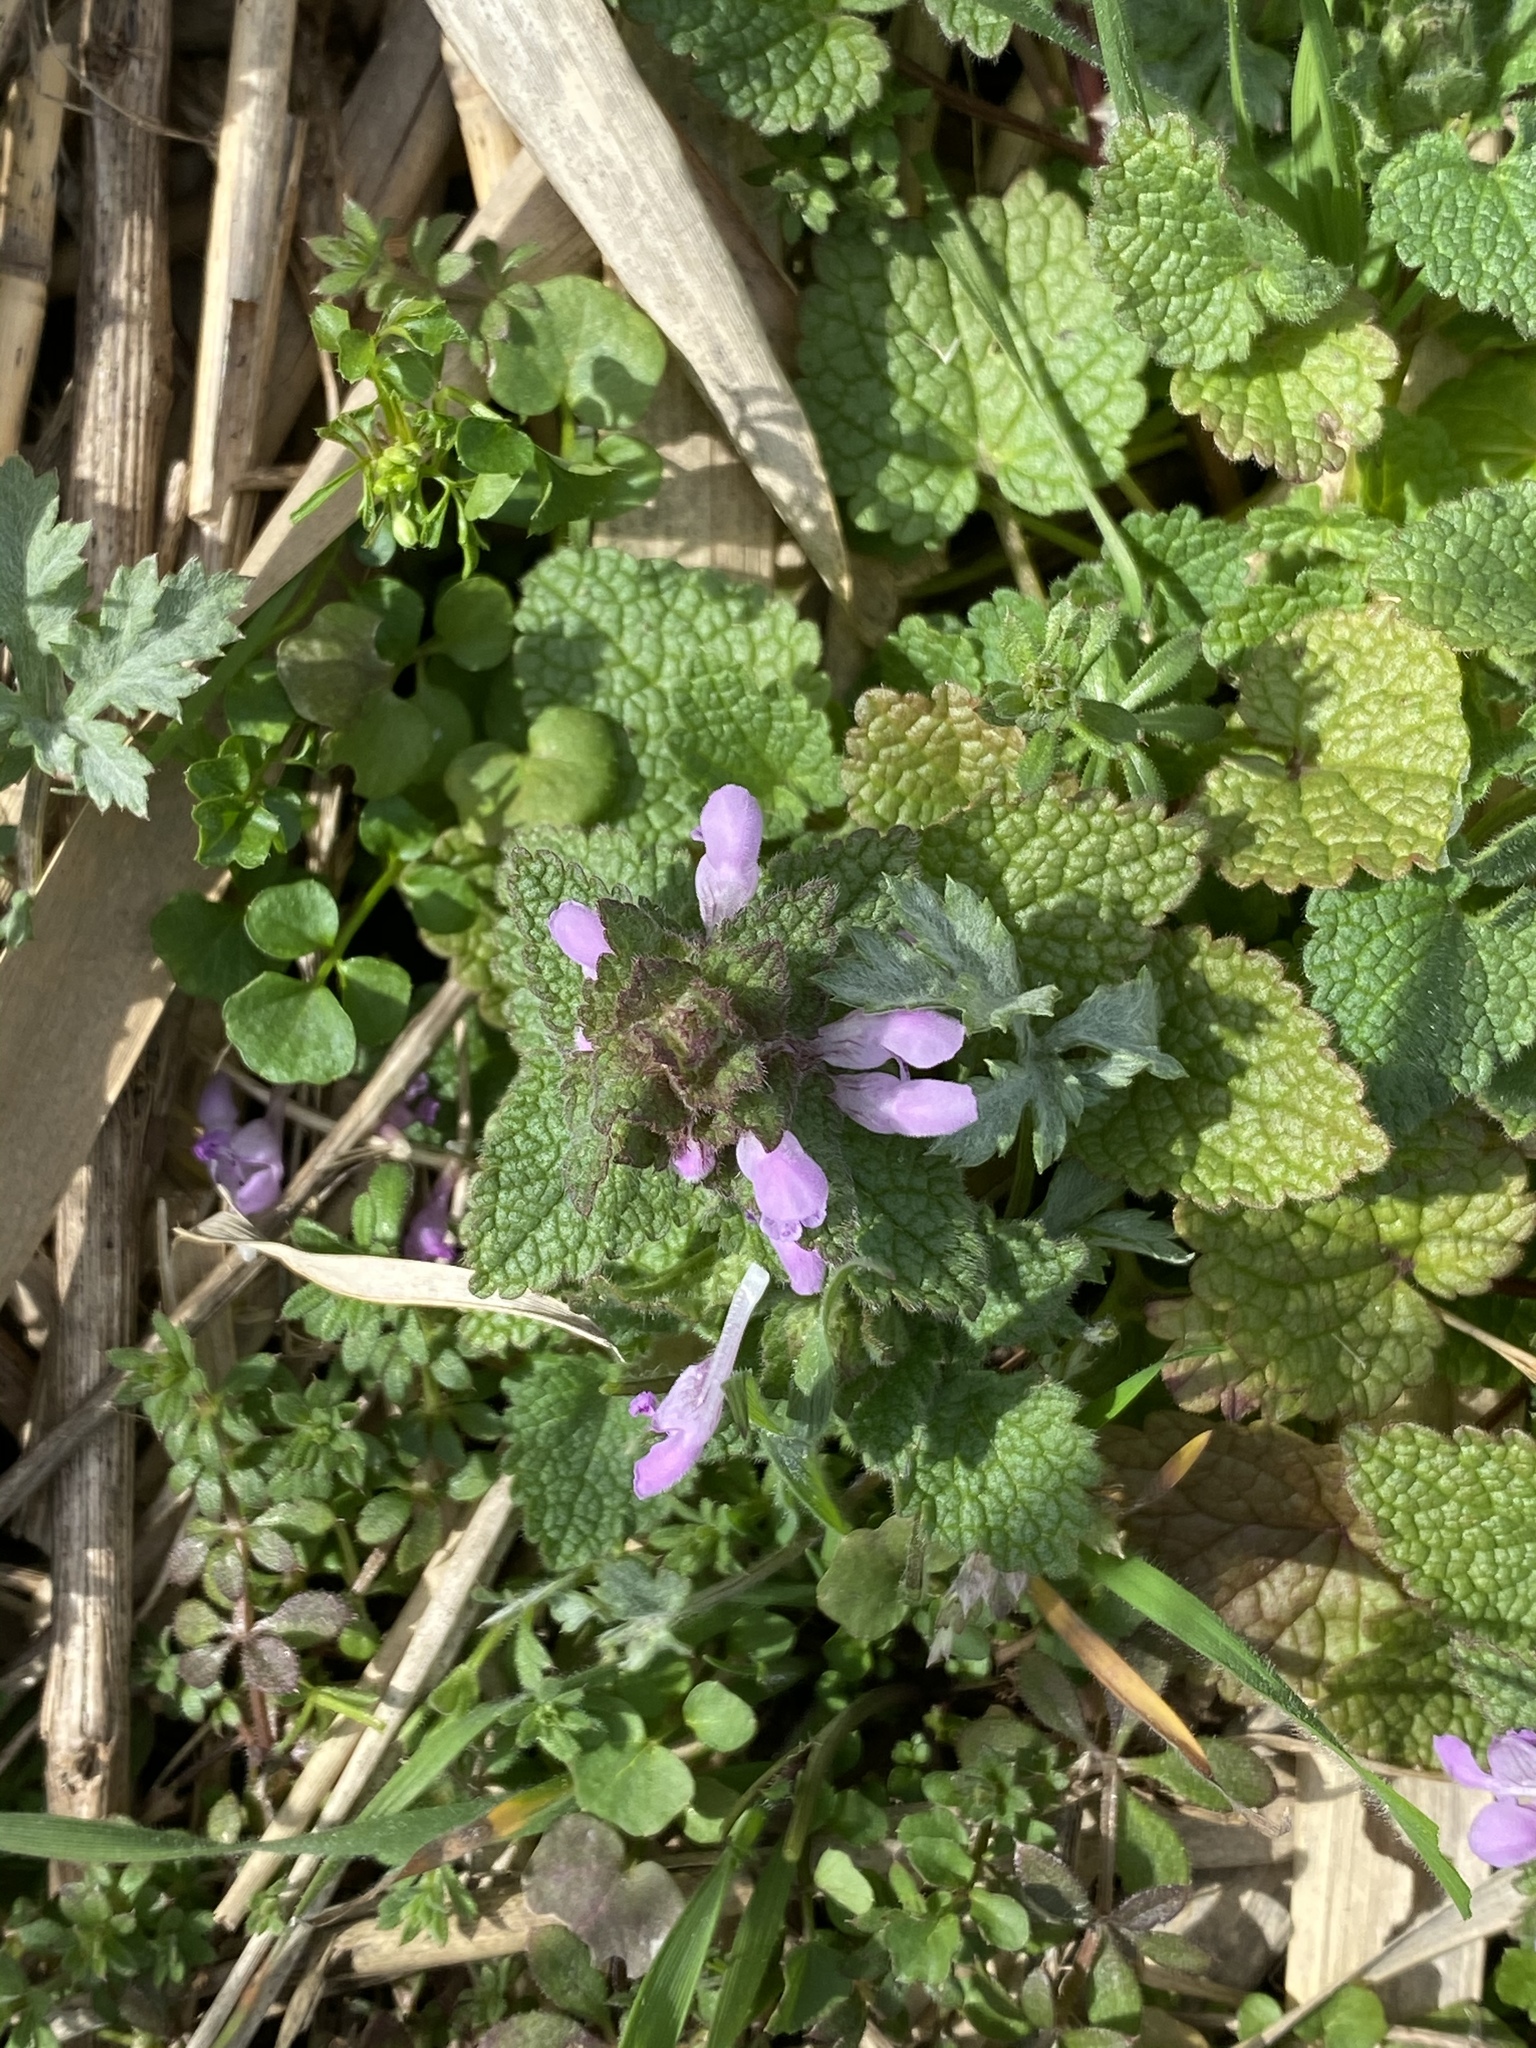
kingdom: Plantae
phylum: Tracheophyta
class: Magnoliopsida
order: Lamiales
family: Lamiaceae
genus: Lamium
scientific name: Lamium purpureum
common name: Red dead-nettle
